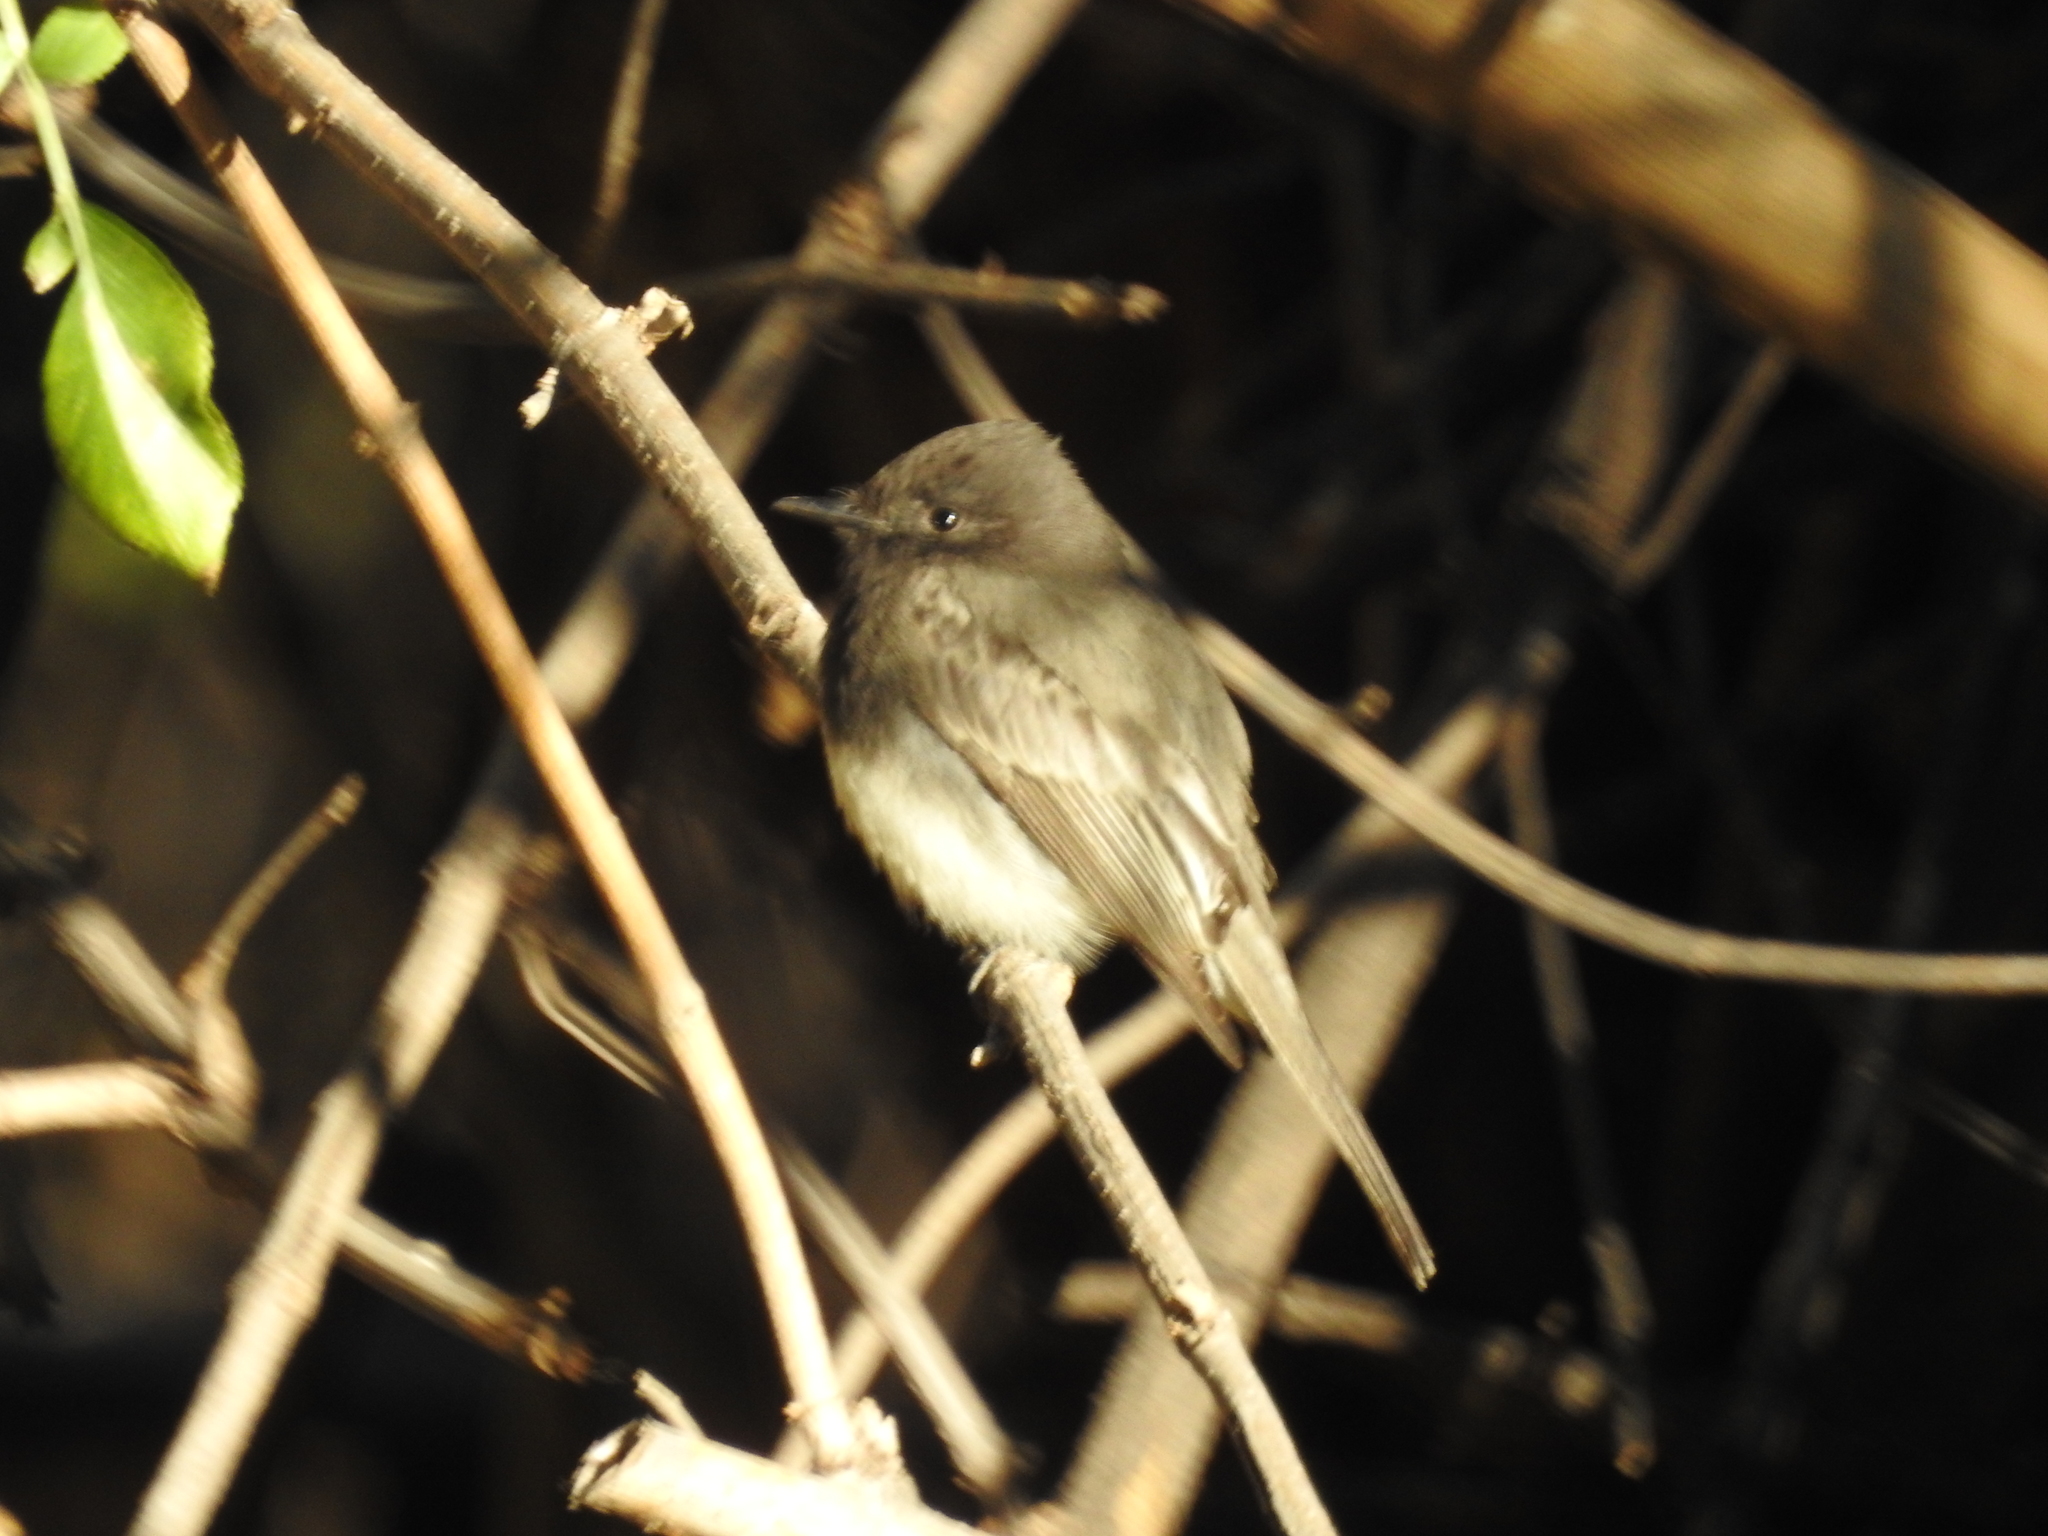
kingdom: Animalia
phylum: Chordata
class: Aves
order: Passeriformes
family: Tyrannidae
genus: Sayornis
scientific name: Sayornis nigricans
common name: Black phoebe
